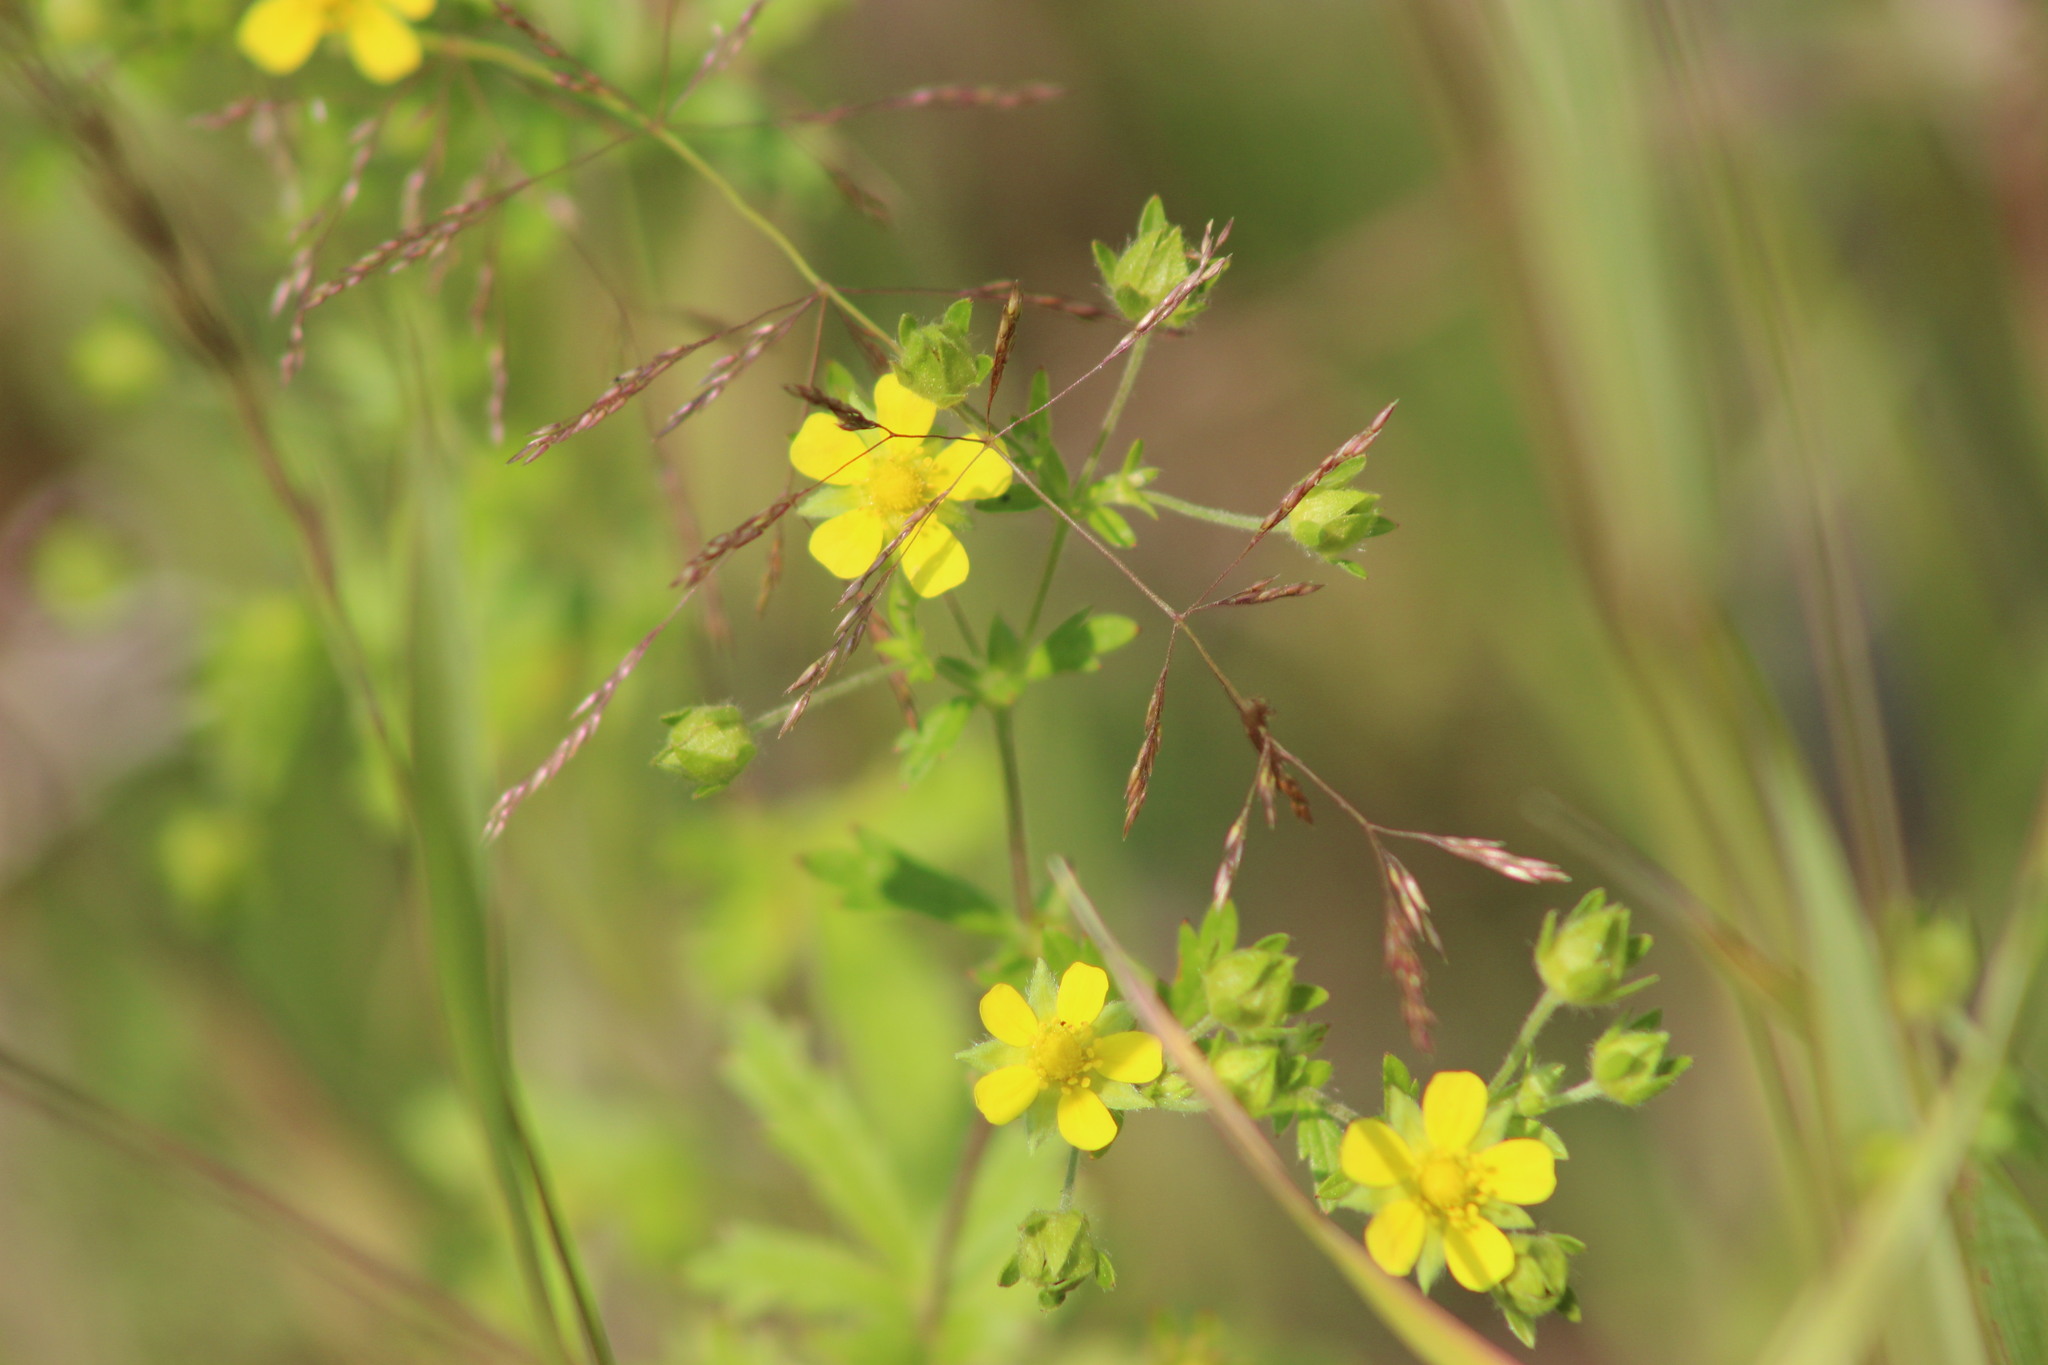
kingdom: Plantae
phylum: Tracheophyta
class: Magnoliopsida
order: Rosales
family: Rosaceae
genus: Potentilla
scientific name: Potentilla argentea
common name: Hoary cinquefoil
